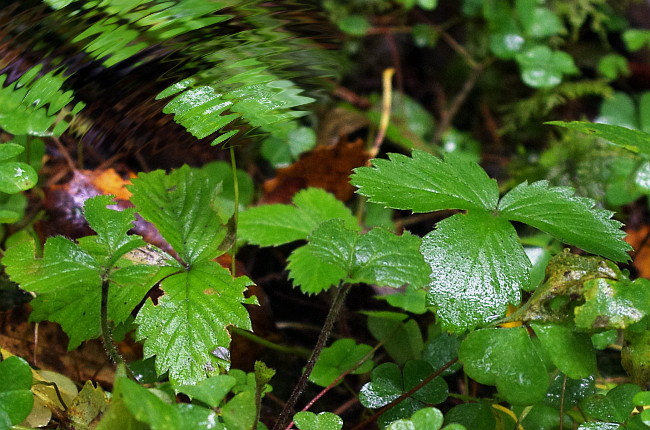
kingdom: Plantae
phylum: Tracheophyta
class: Magnoliopsida
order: Rosales
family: Rosaceae
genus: Fragaria
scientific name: Fragaria vesca
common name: Wild strawberry
